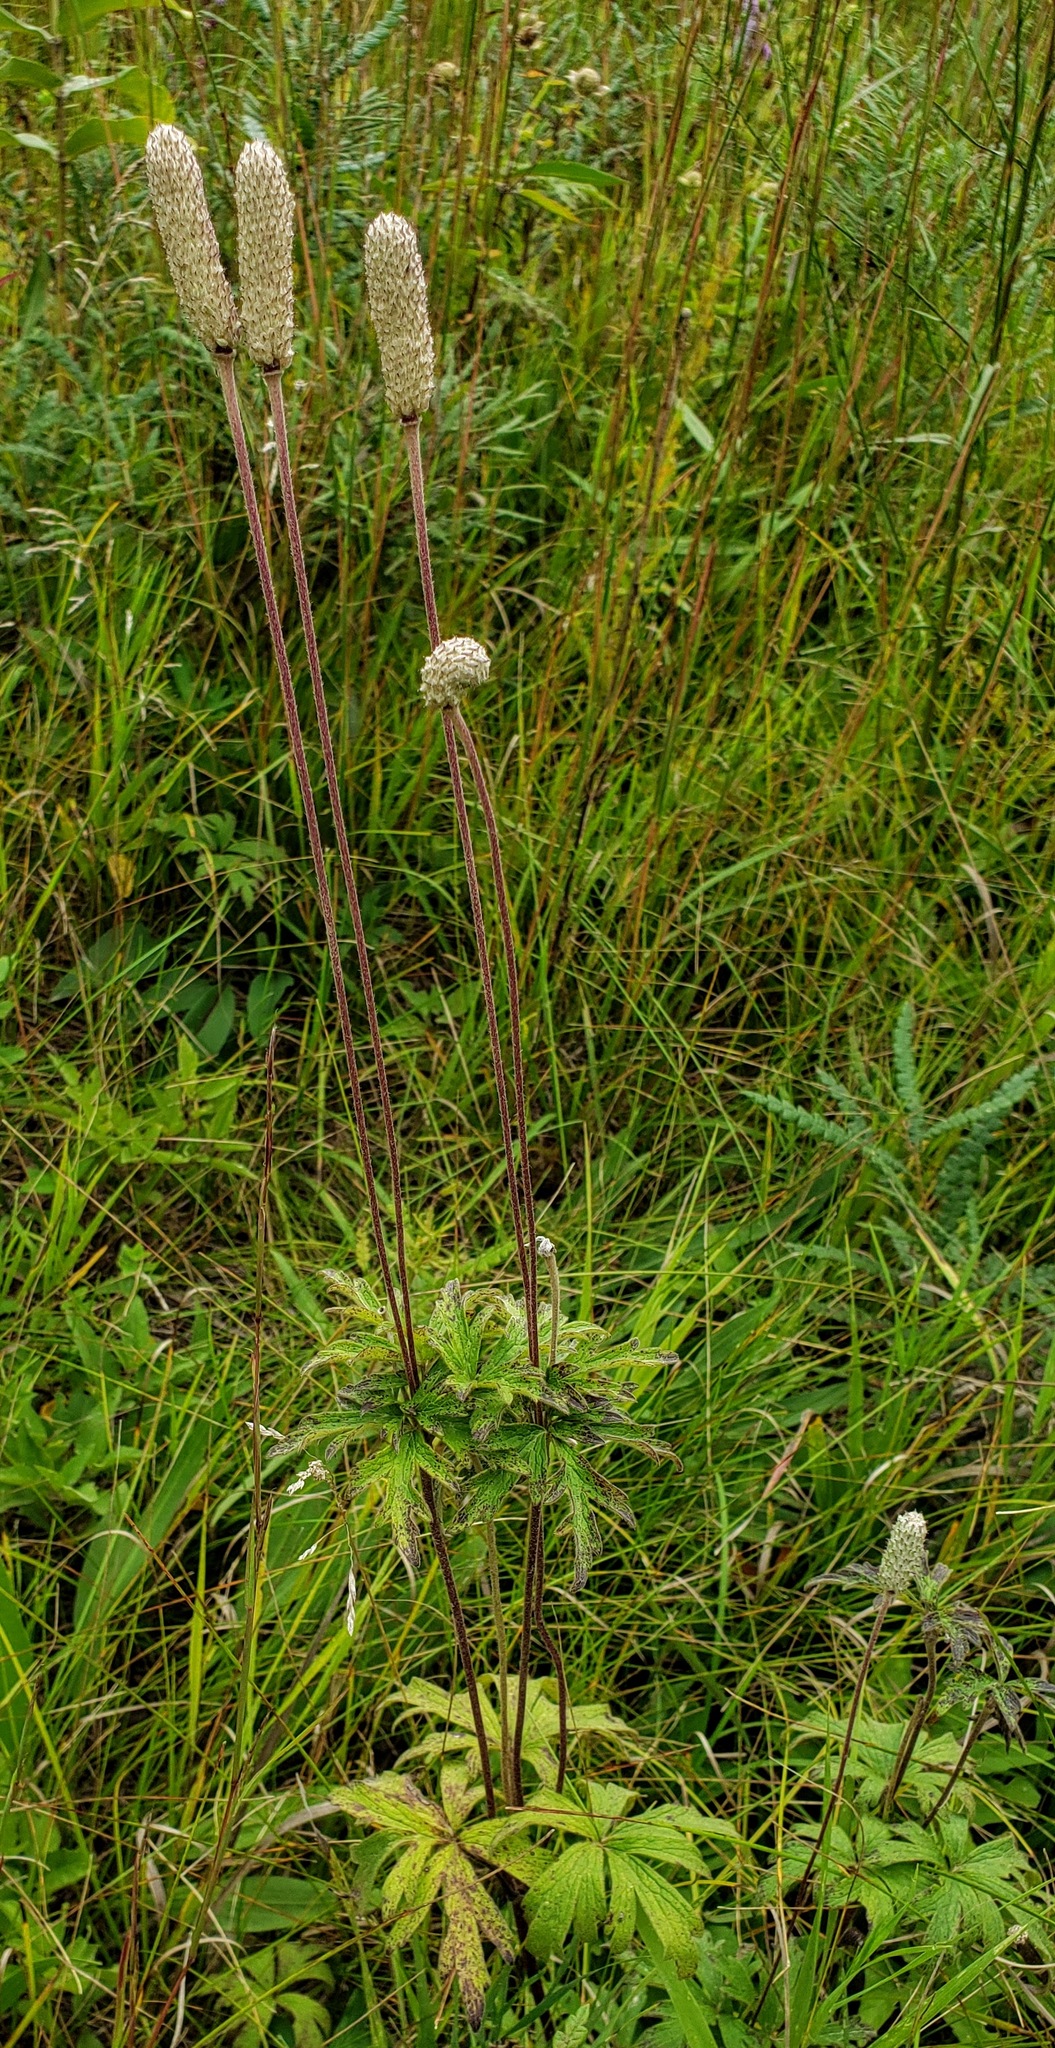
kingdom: Plantae
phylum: Tracheophyta
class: Magnoliopsida
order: Ranunculales
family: Ranunculaceae
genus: Anemone
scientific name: Anemone cylindrica
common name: Candle anemone
